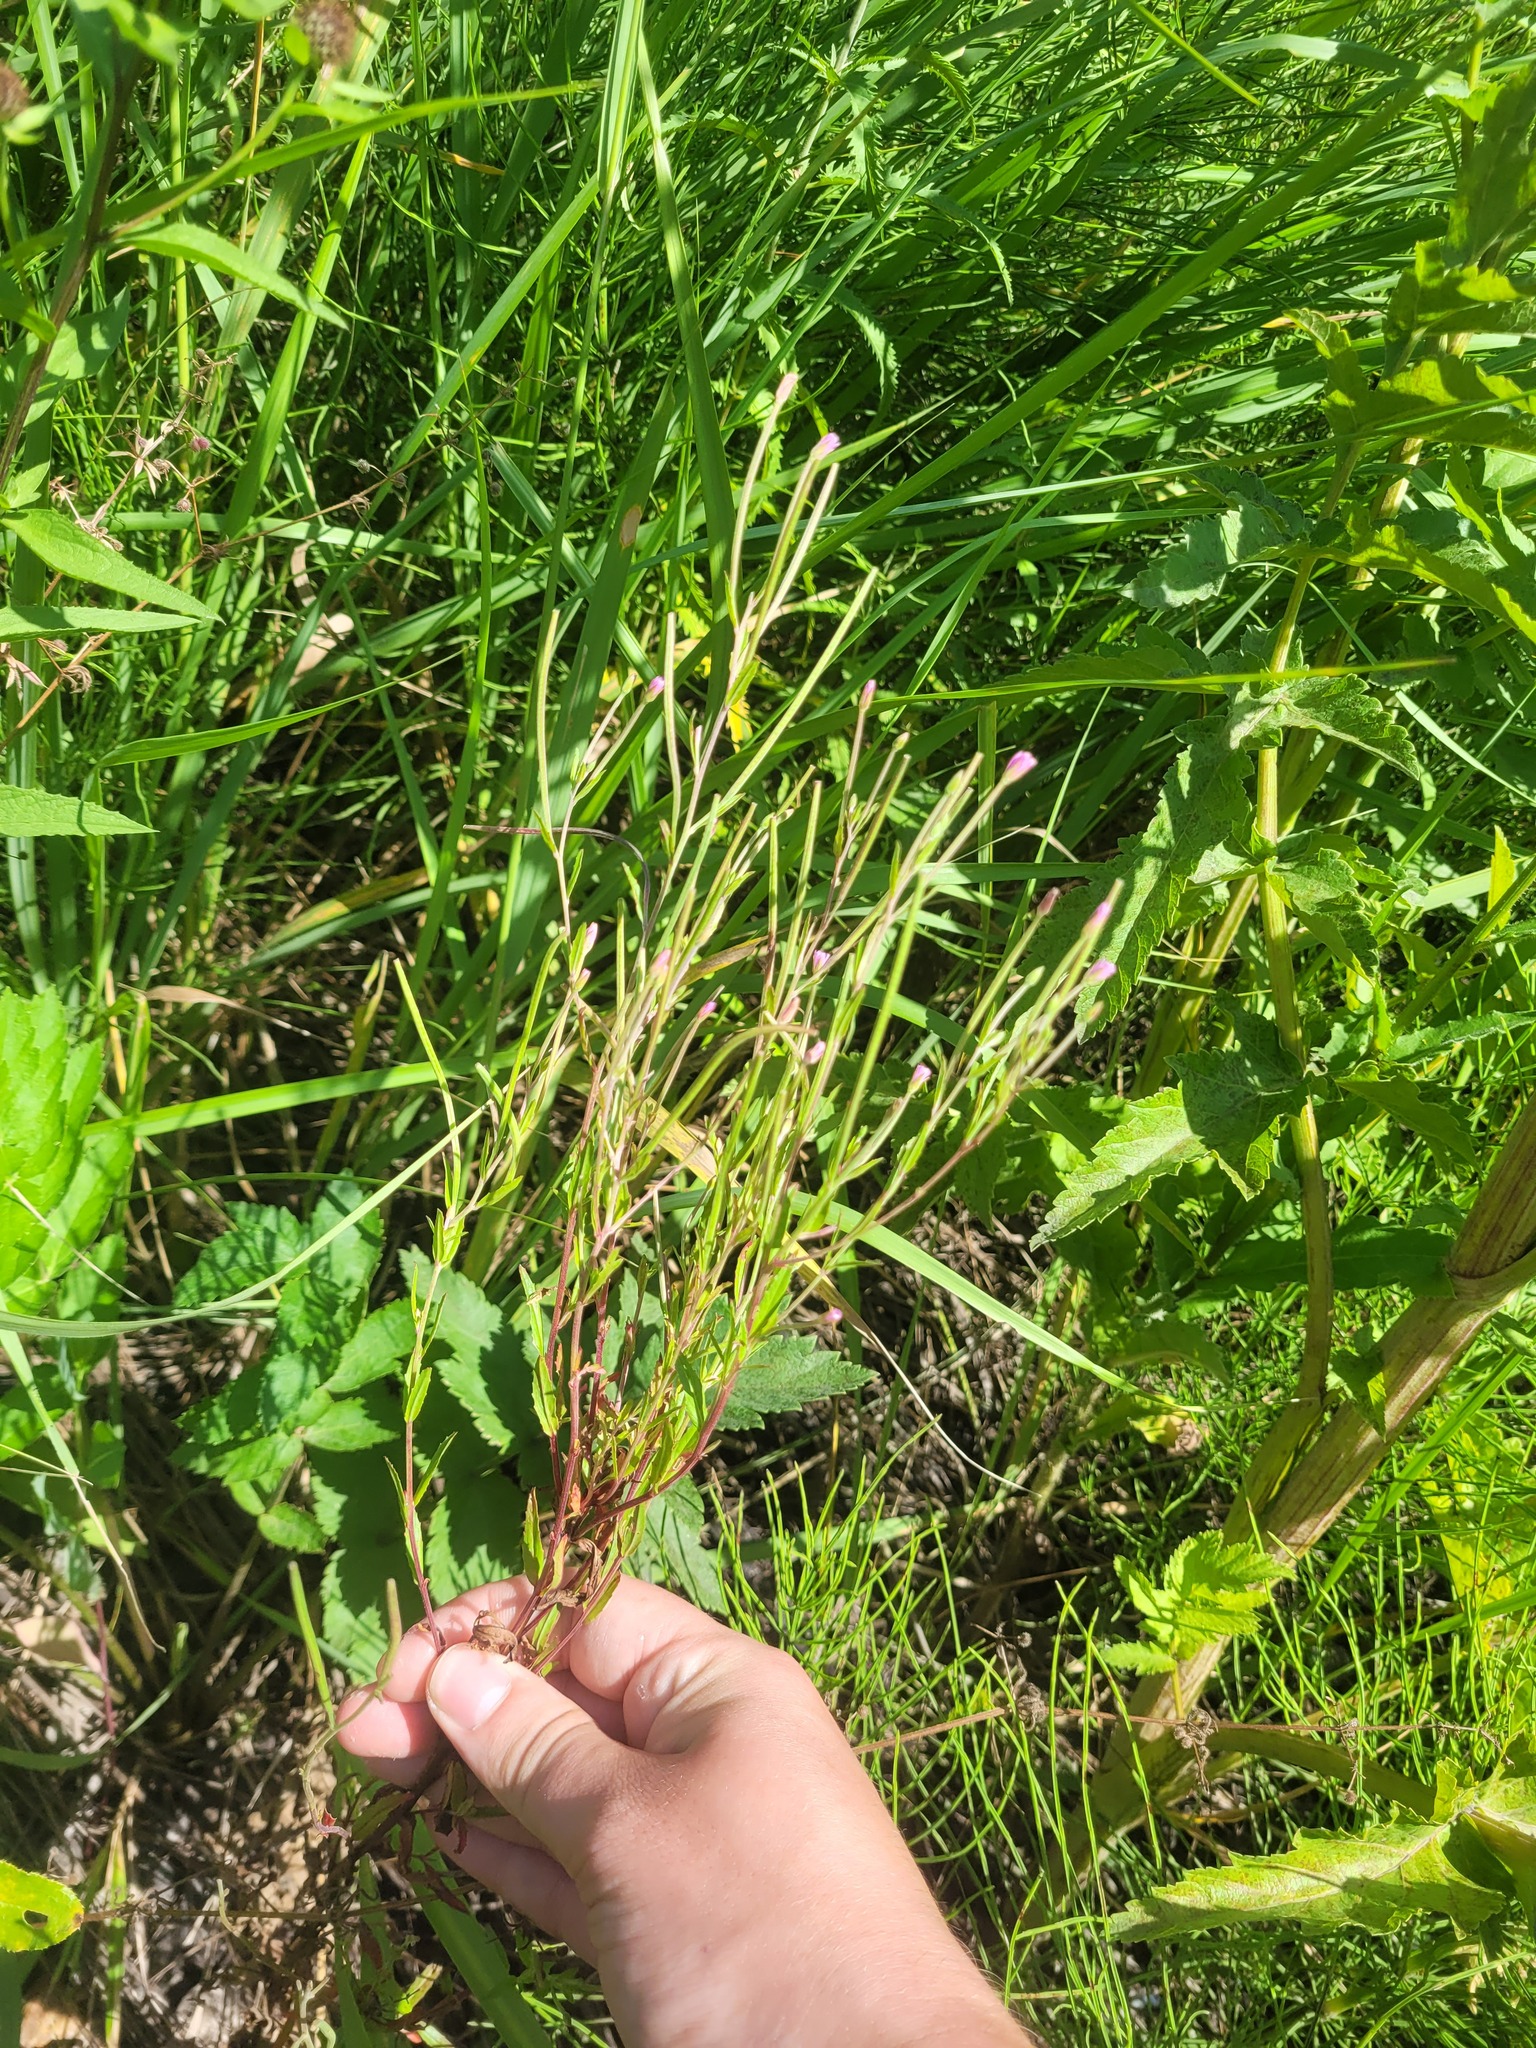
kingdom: Plantae
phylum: Tracheophyta
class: Magnoliopsida
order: Myrtales
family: Onagraceae
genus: Epilobium
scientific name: Epilobium lamyi
